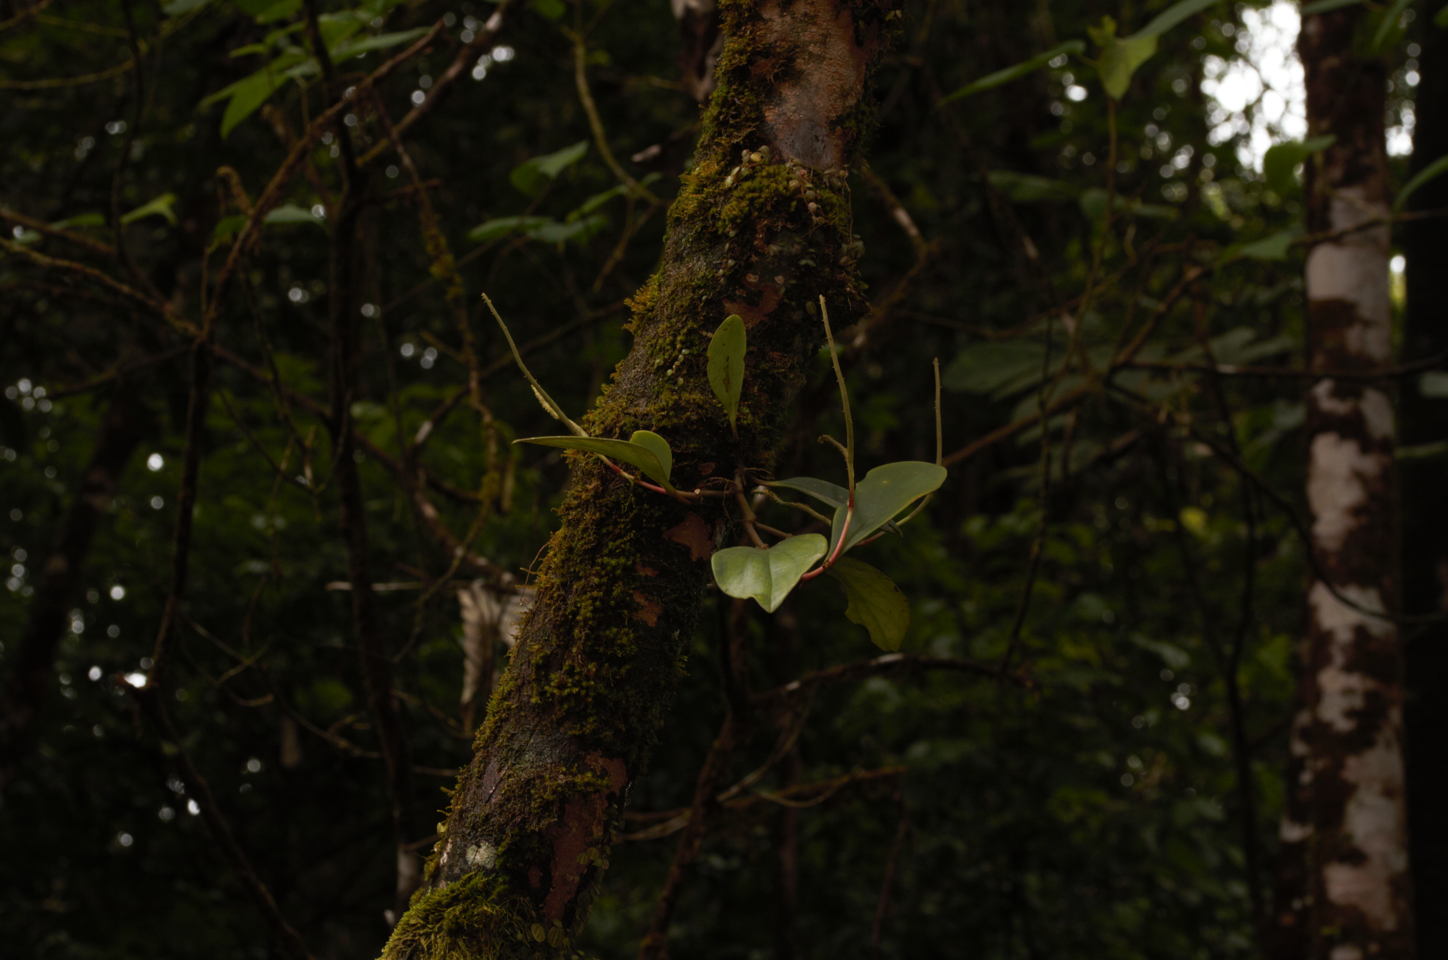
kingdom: Plantae
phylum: Tracheophyta
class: Magnoliopsida
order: Piperales
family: Piperaceae
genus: Peperomia
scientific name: Peperomia obtusifolia
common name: Baby rubberplant
